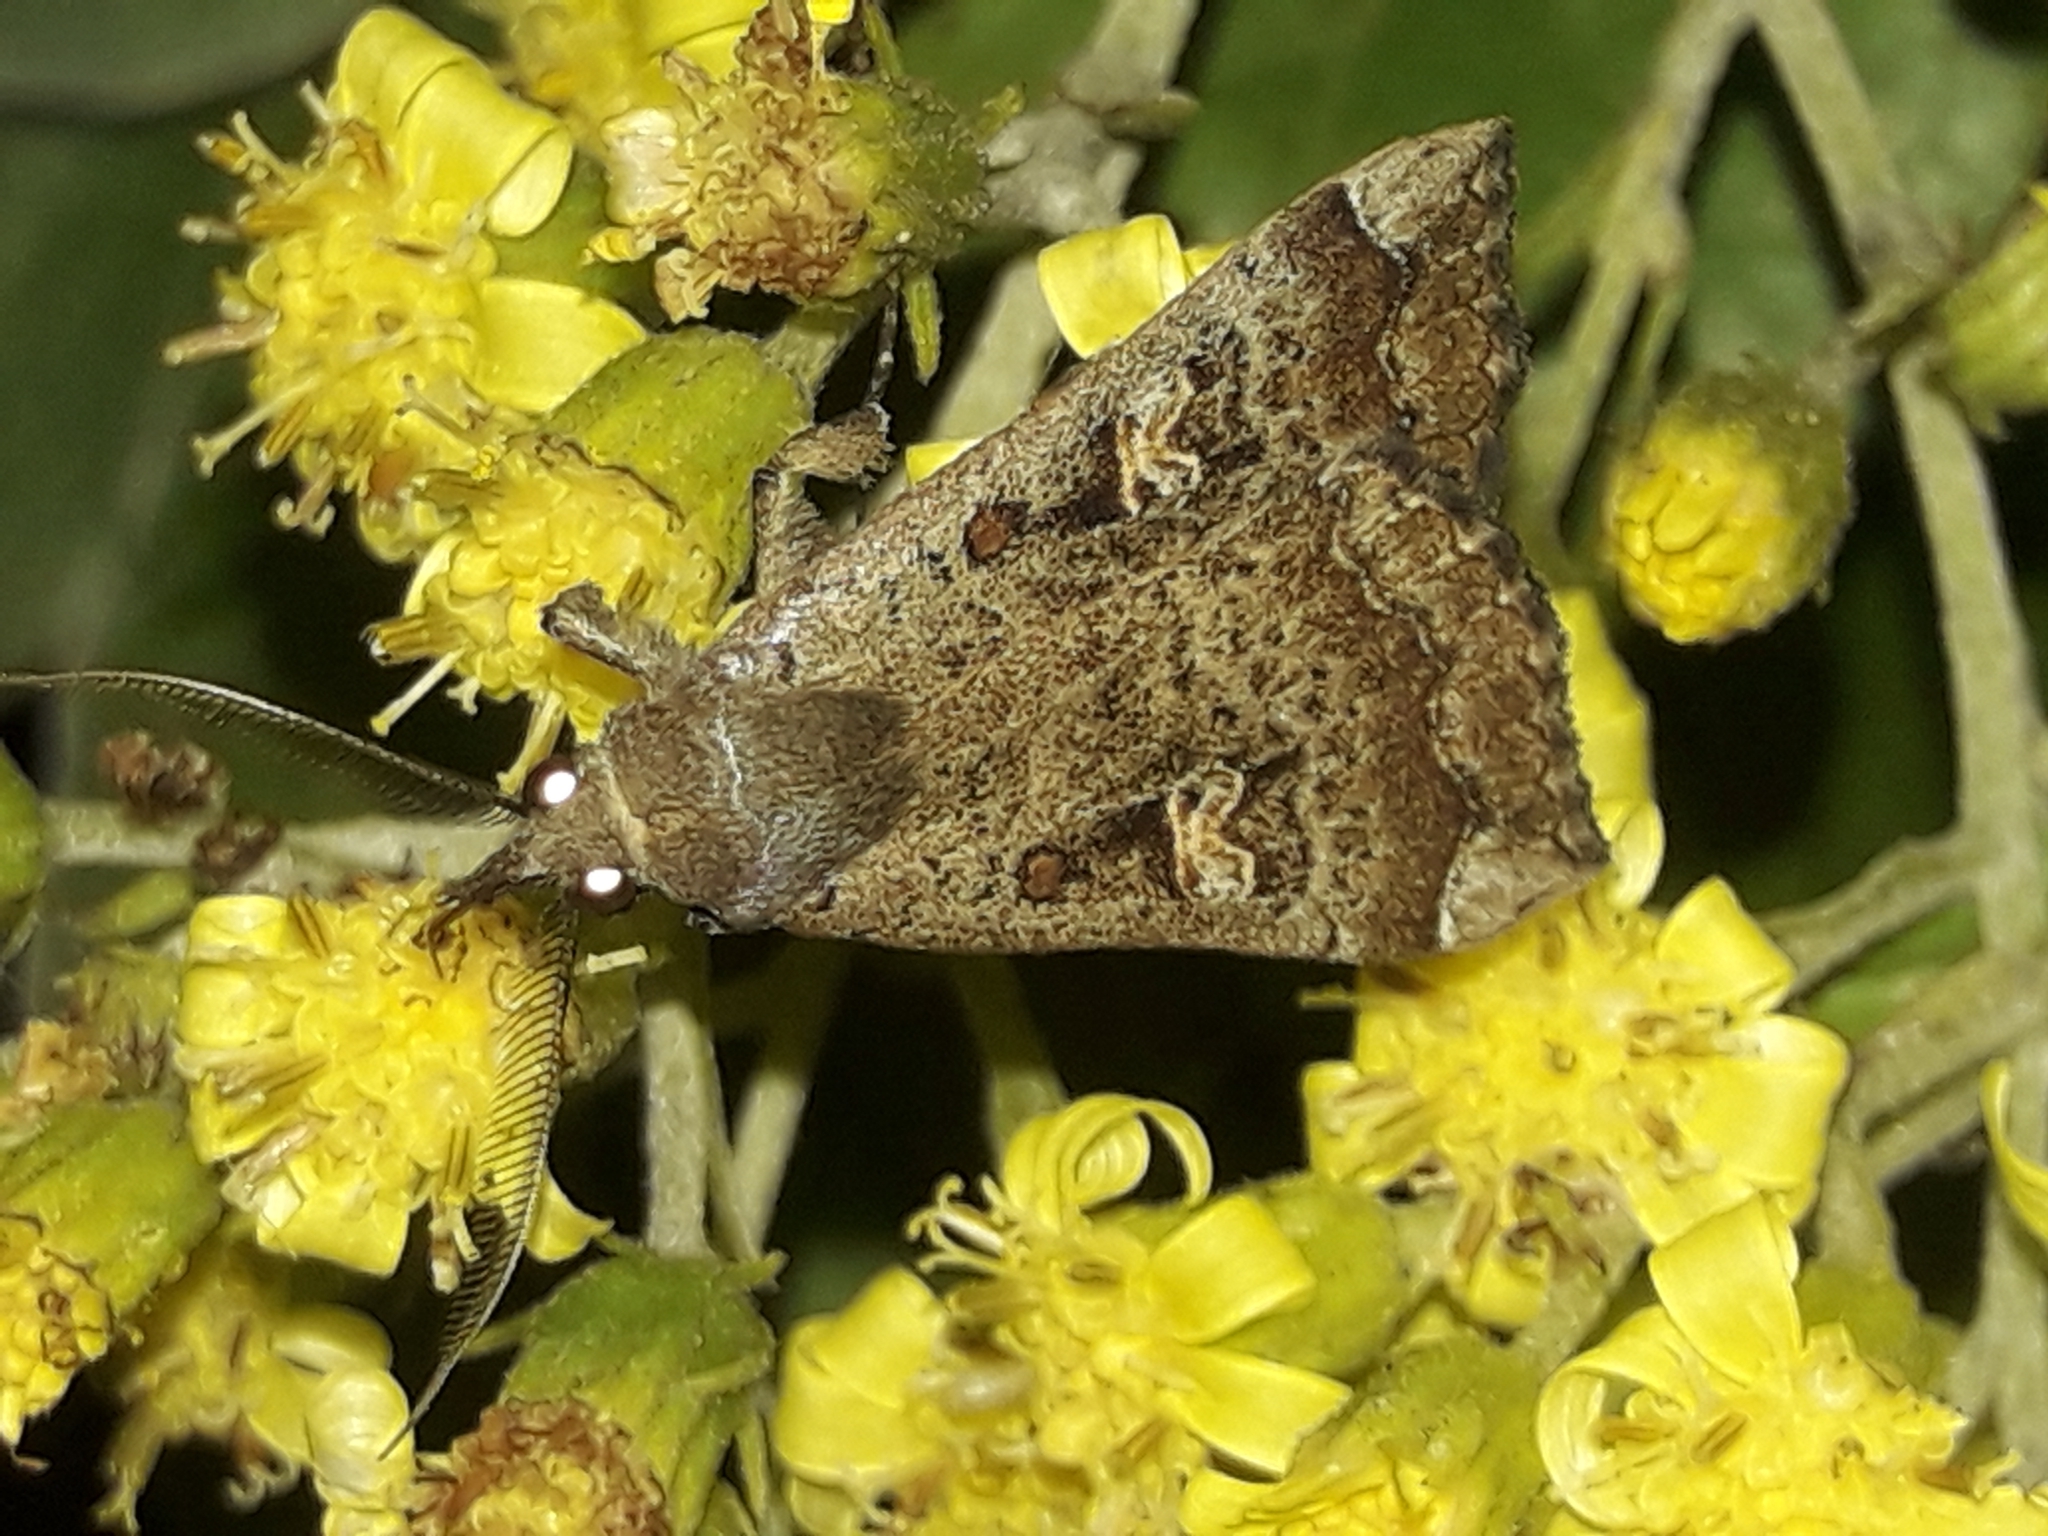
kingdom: Animalia
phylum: Arthropoda
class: Insecta
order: Lepidoptera
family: Erebidae
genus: Rhapsa
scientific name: Rhapsa scotosialis
